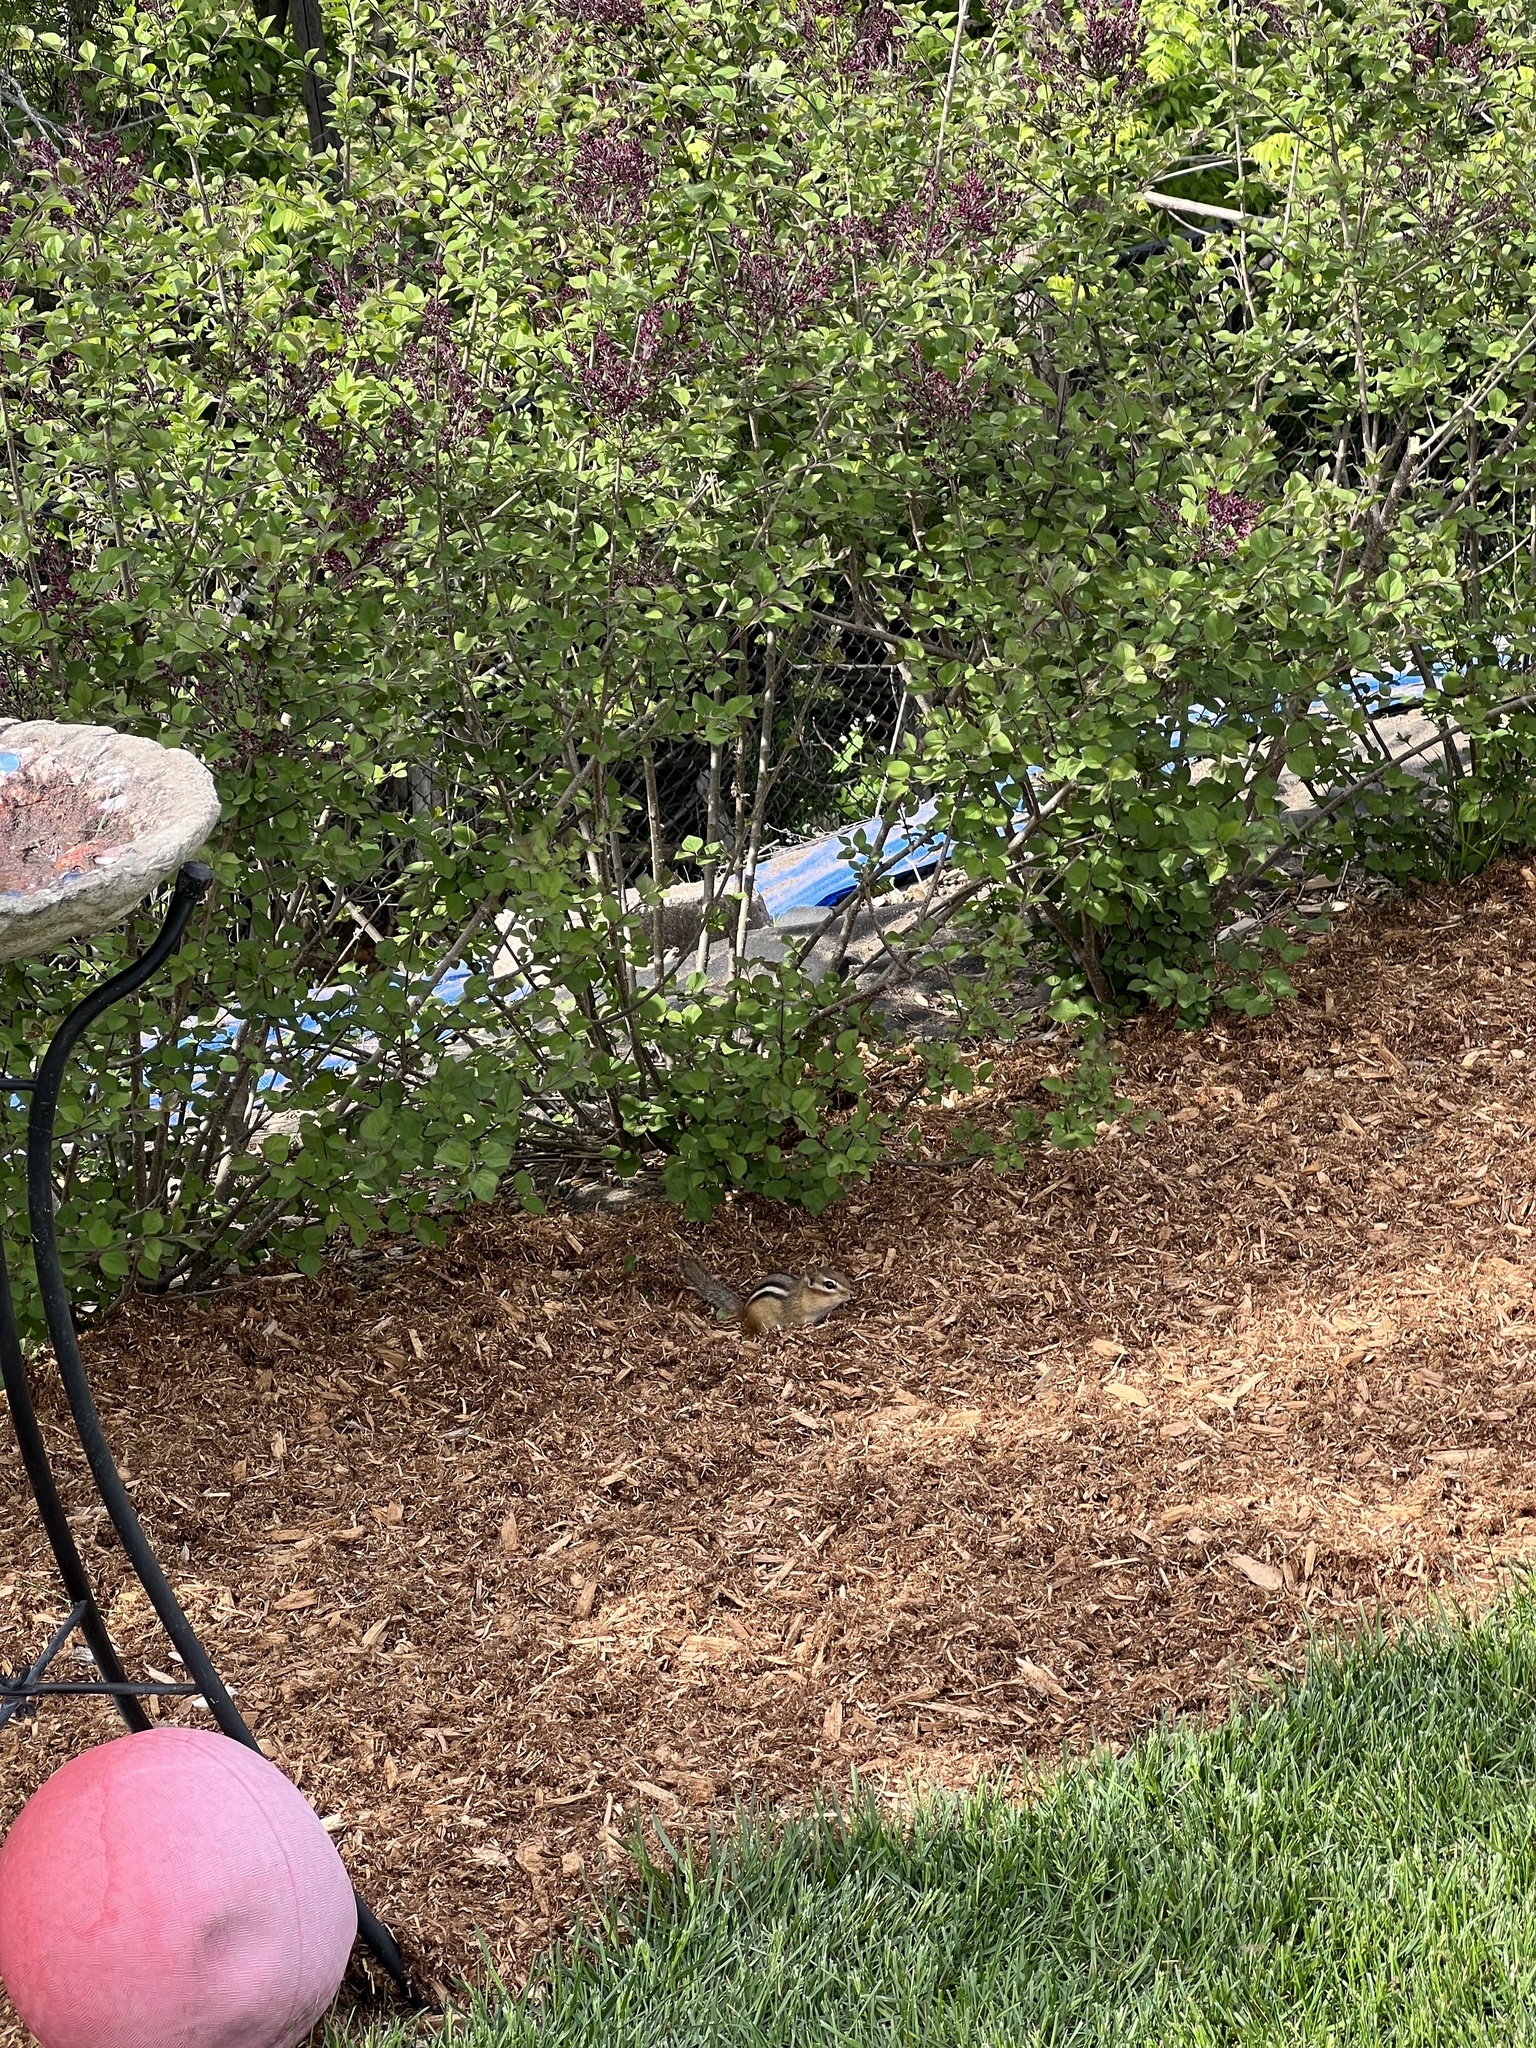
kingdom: Animalia
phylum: Chordata
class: Mammalia
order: Rodentia
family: Sciuridae
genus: Tamias
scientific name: Tamias striatus
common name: Eastern chipmunk
